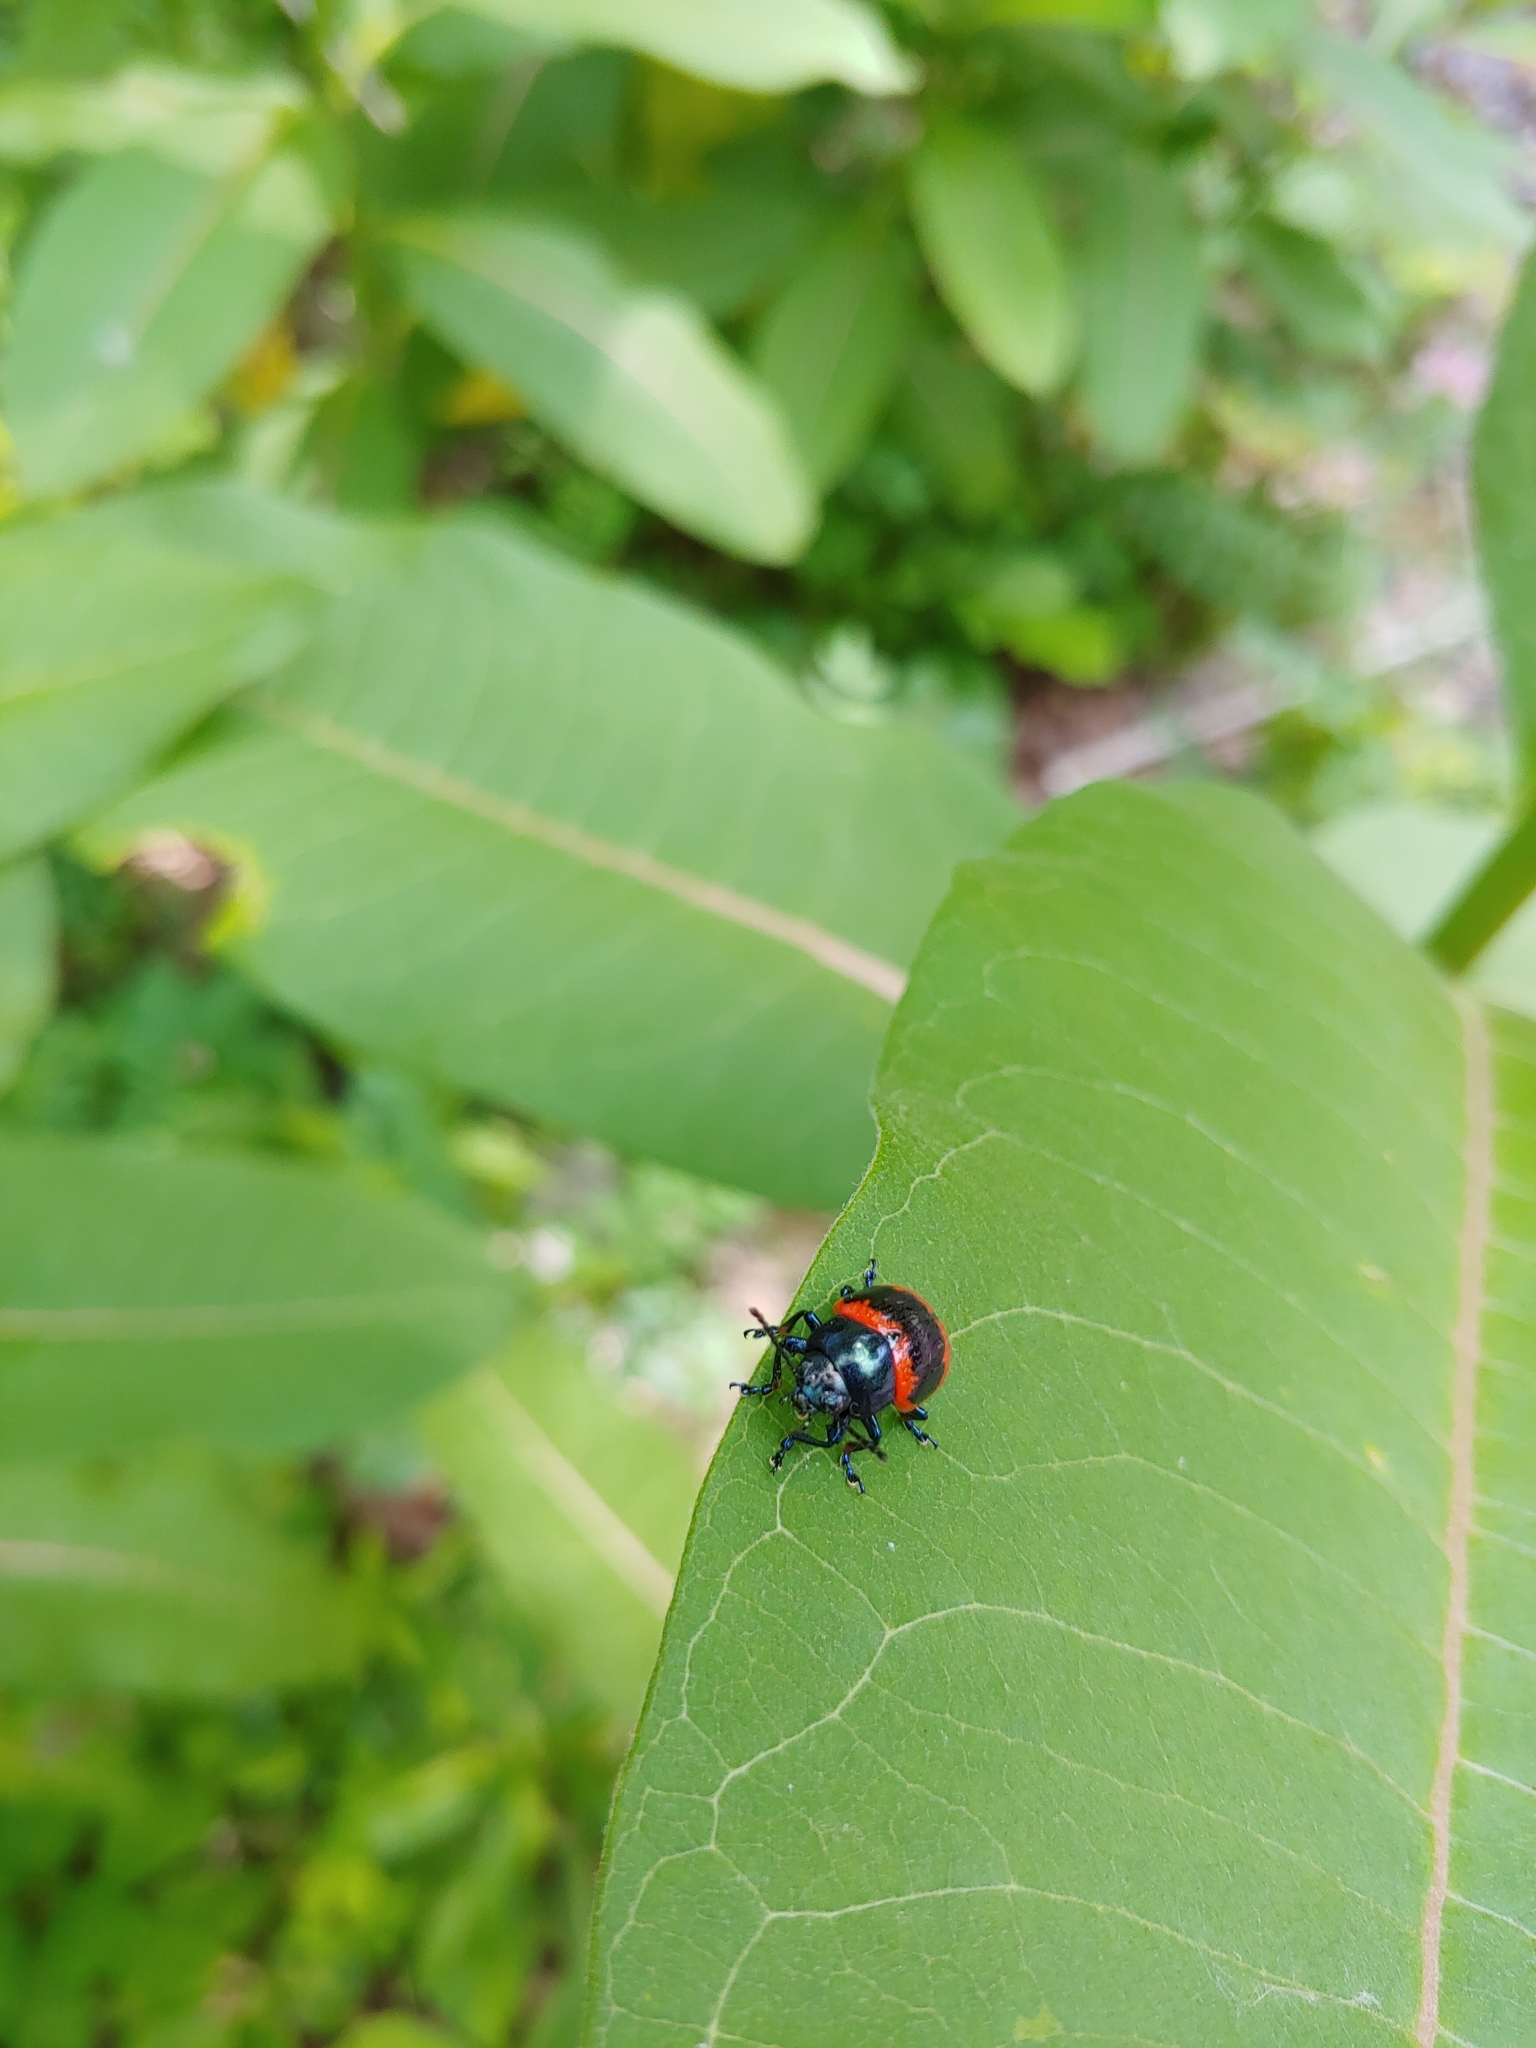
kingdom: Animalia
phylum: Arthropoda
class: Insecta
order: Coleoptera
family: Chrysomelidae
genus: Labidomera
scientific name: Labidomera clivicollis
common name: Swamp milkweed leaf beetle
